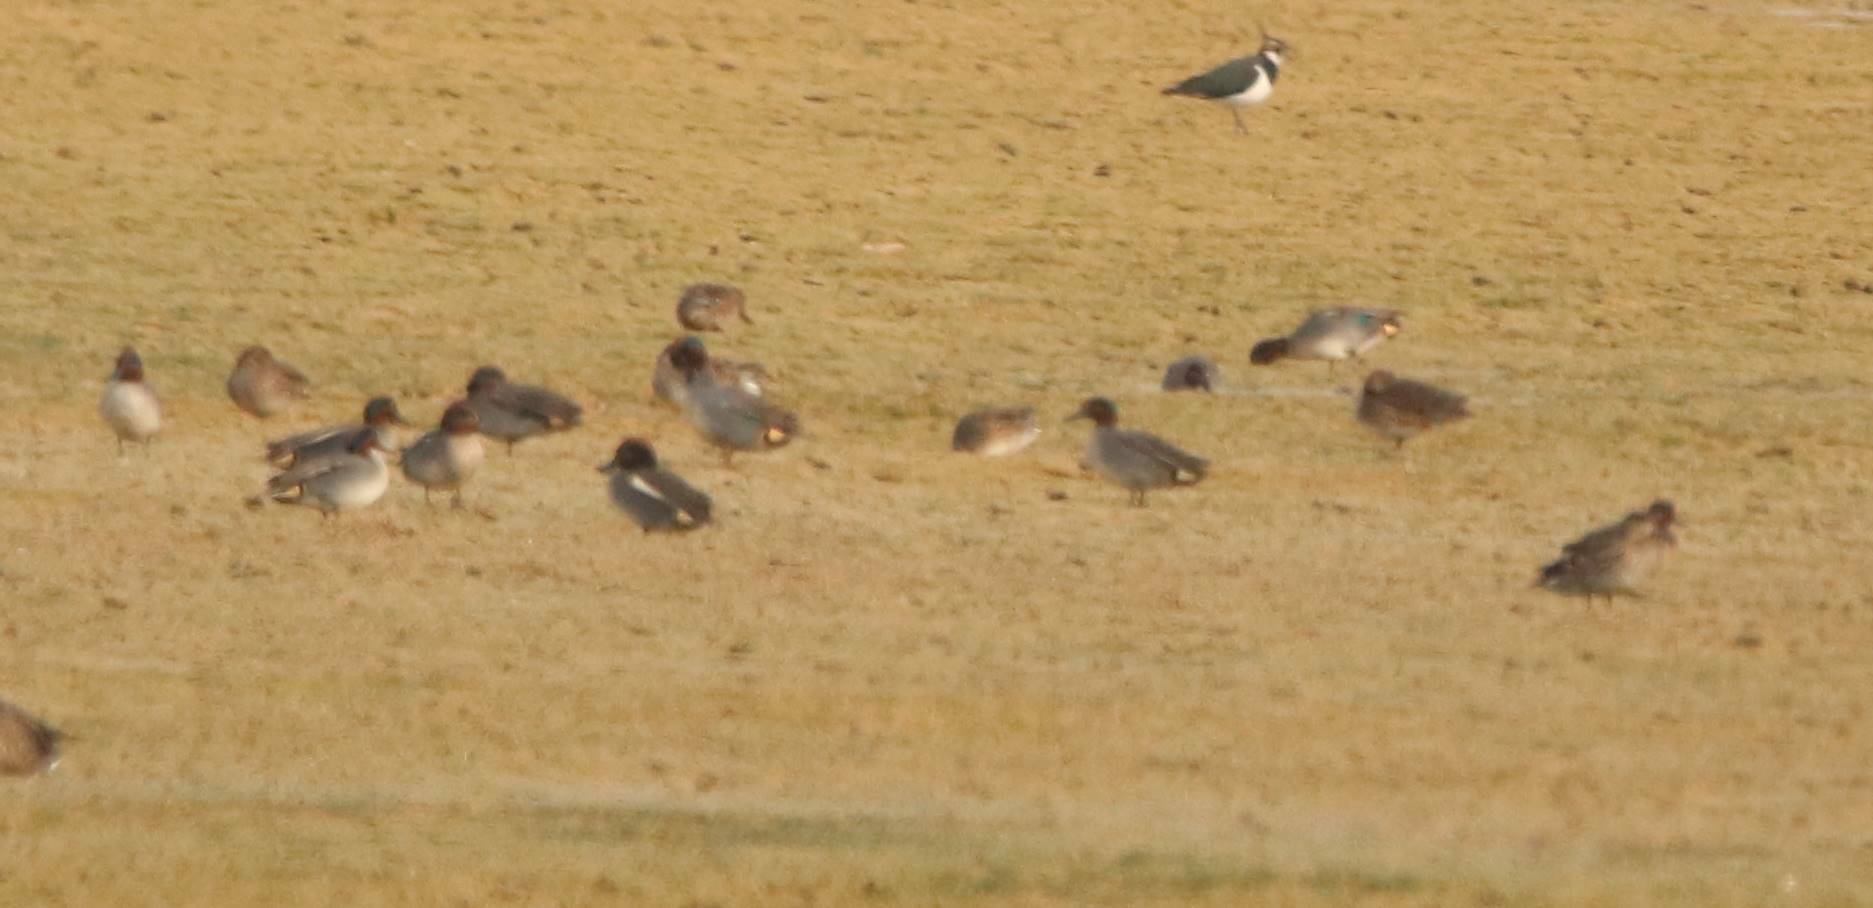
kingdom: Animalia
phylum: Chordata
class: Aves
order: Anseriformes
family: Anatidae
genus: Anas
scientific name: Anas crecca
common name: Eurasian teal
